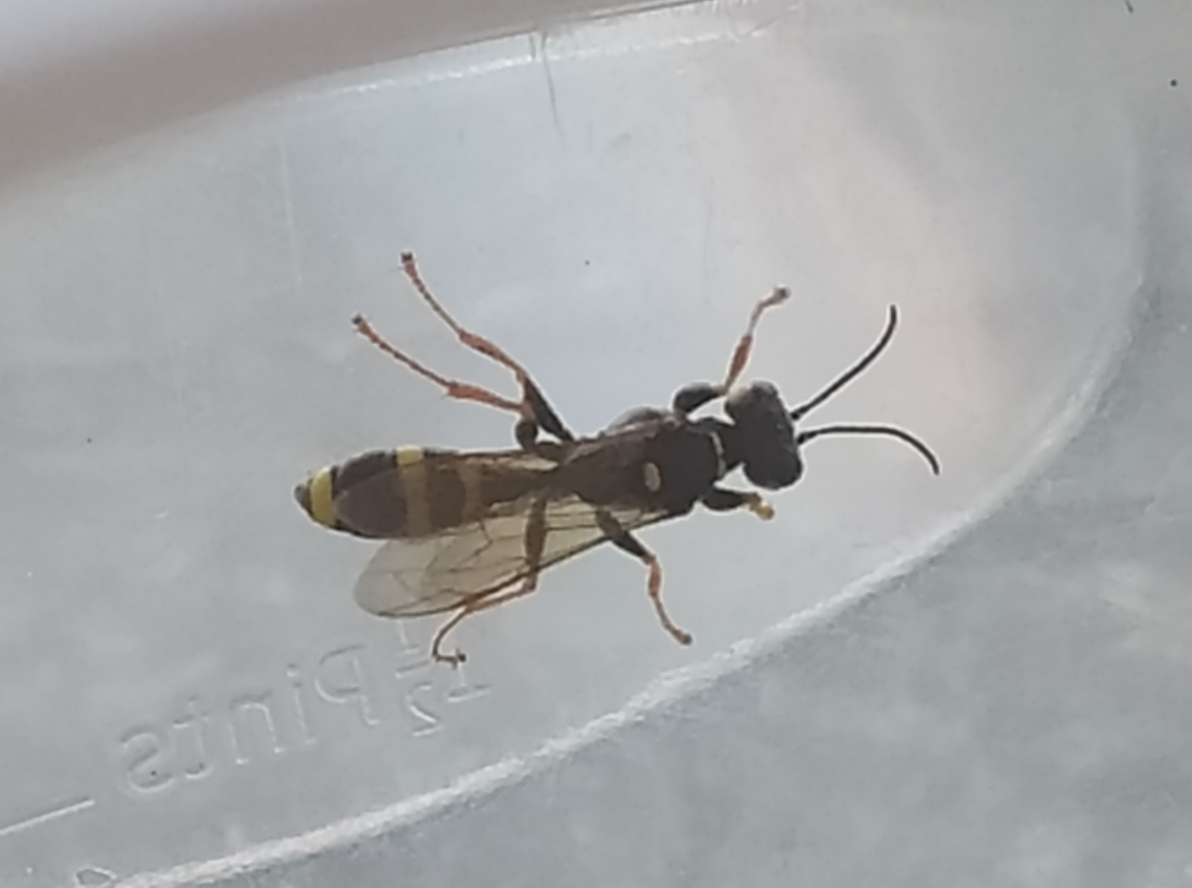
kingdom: Animalia
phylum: Arthropoda
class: Insecta
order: Hymenoptera
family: Crabronidae
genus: Mellinus
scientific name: Mellinus arvensis
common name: Field digger wasp
